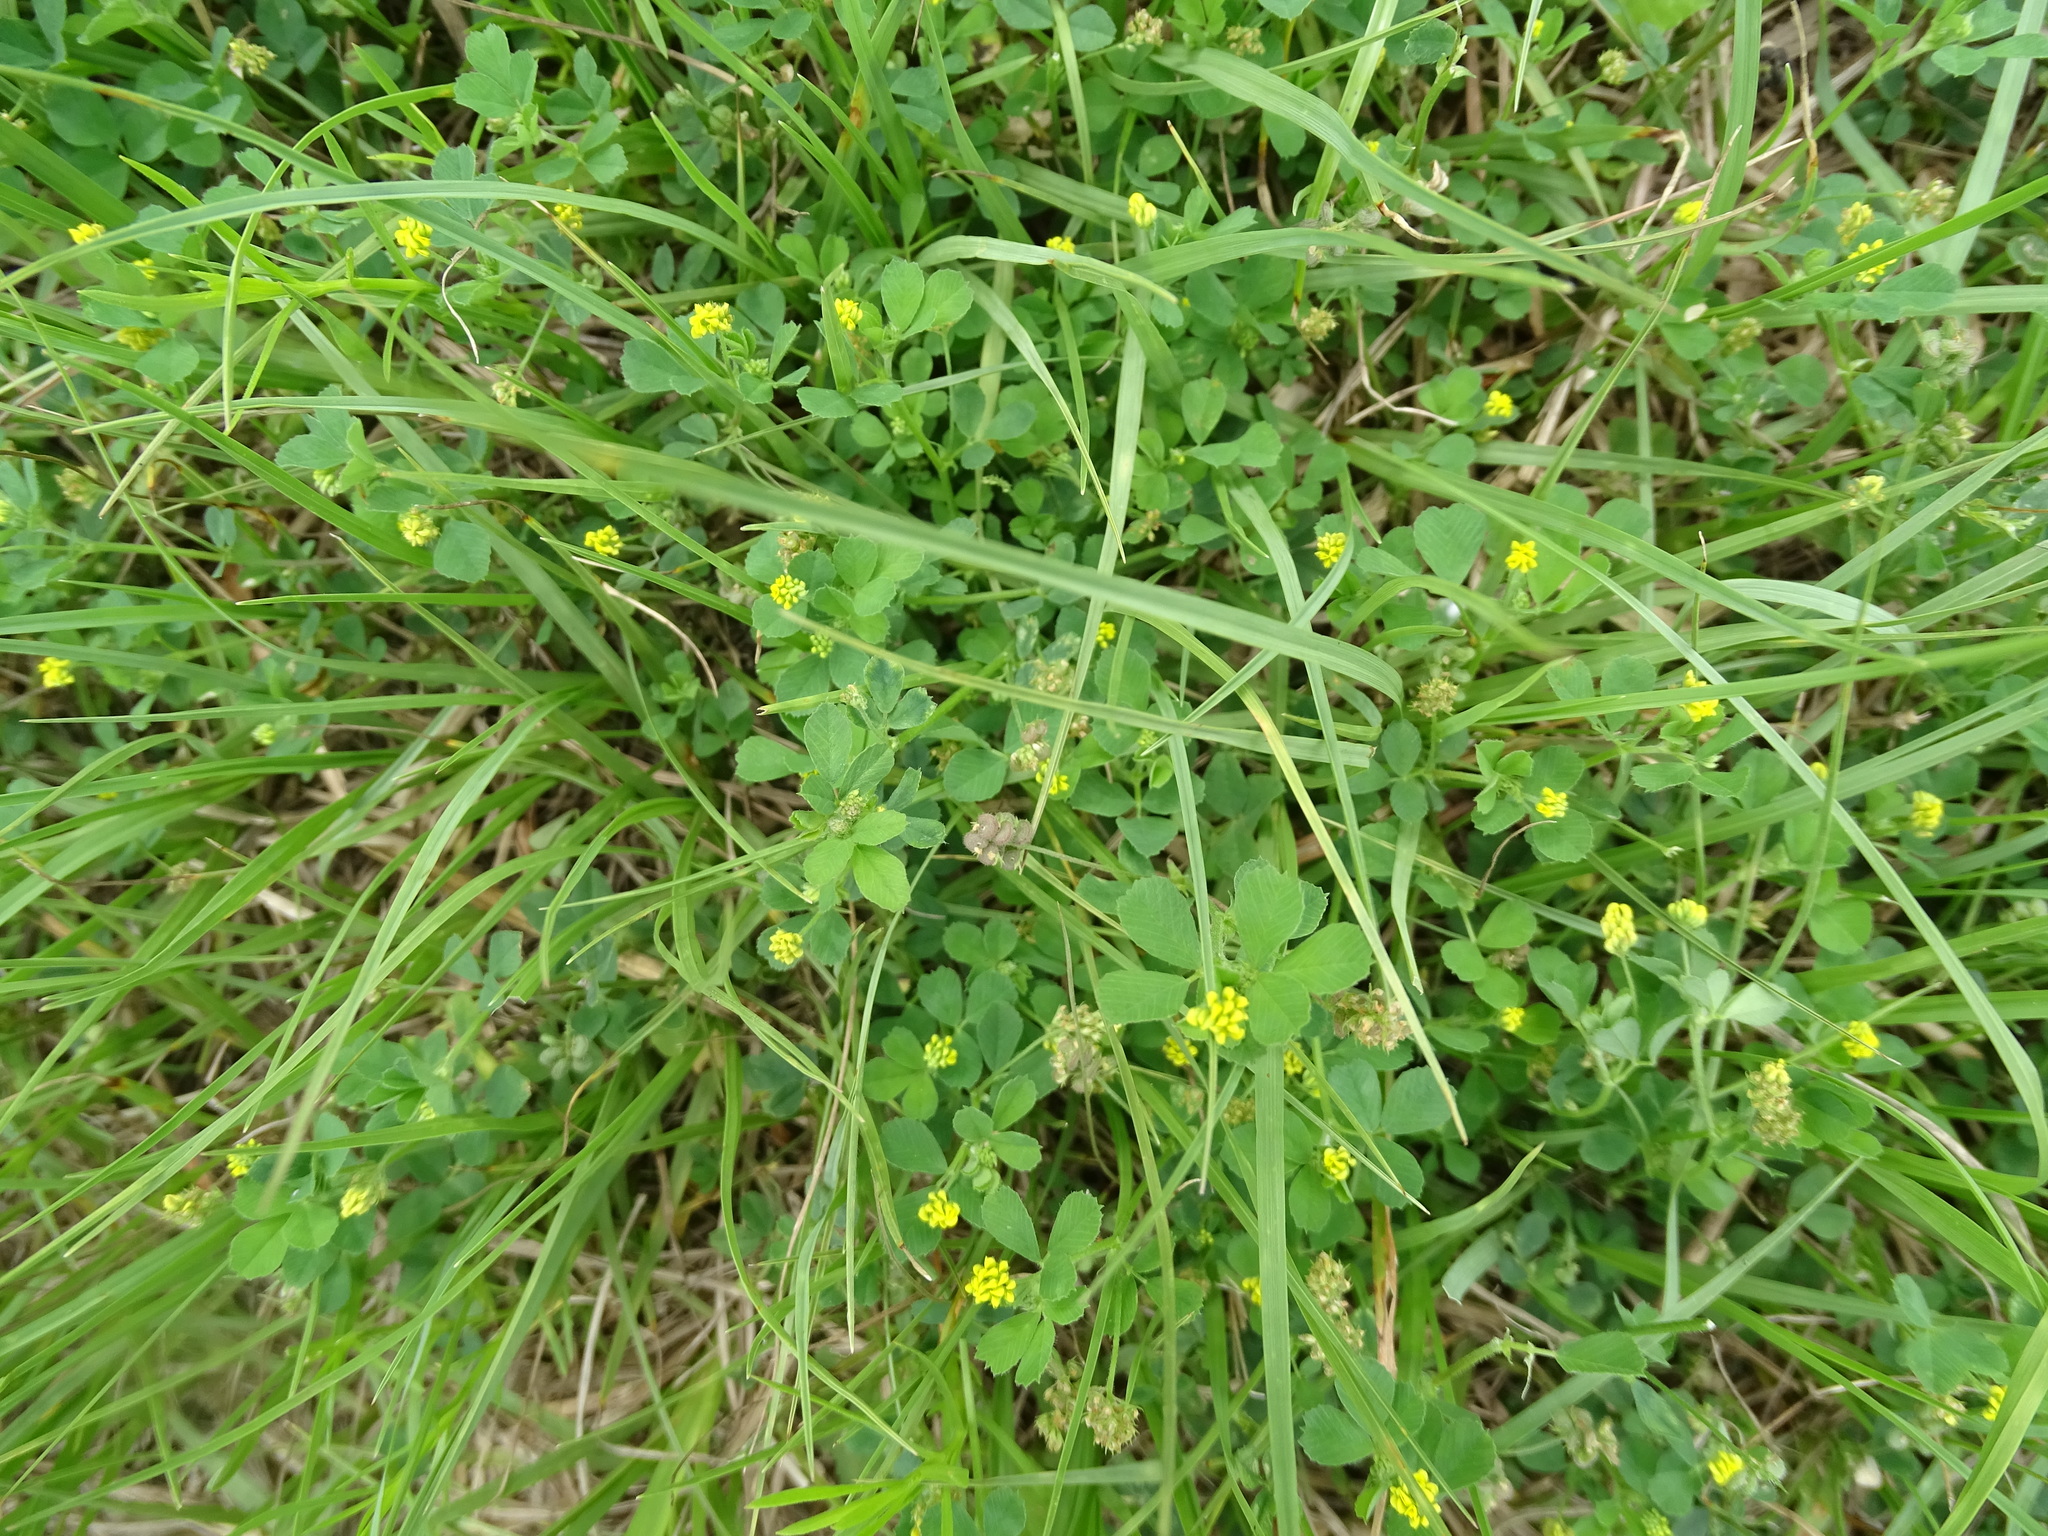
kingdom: Plantae
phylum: Tracheophyta
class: Magnoliopsida
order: Fabales
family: Fabaceae
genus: Medicago
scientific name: Medicago lupulina
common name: Black medick
